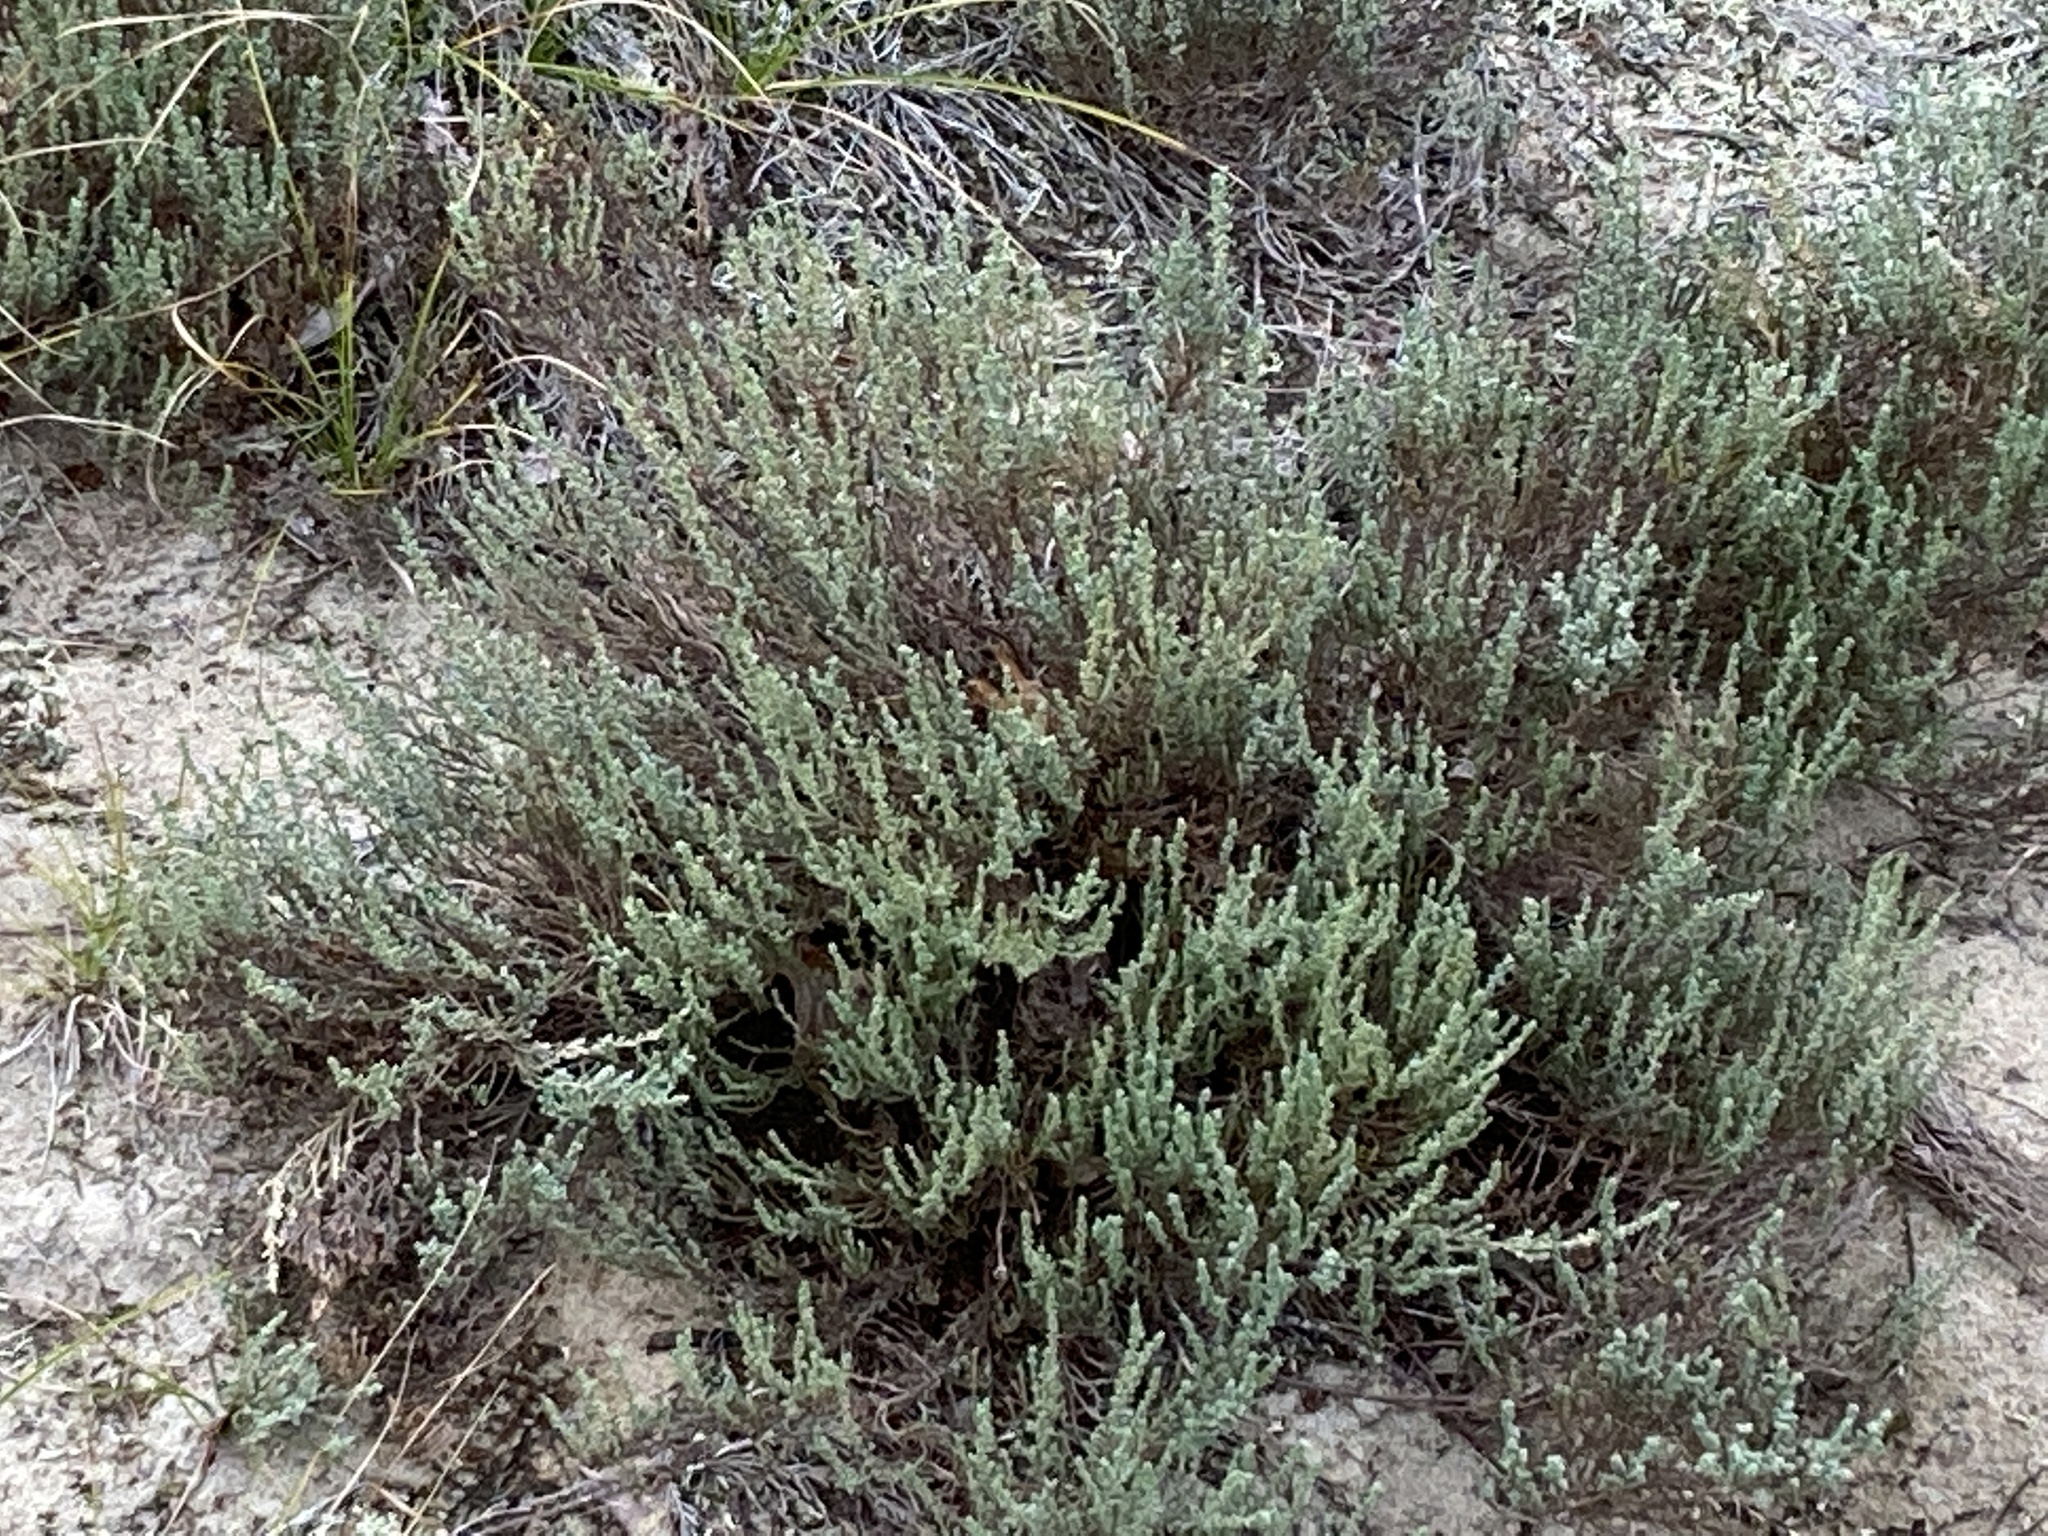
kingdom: Plantae
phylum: Tracheophyta
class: Magnoliopsida
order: Malvales
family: Cistaceae
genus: Hudsonia
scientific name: Hudsonia tomentosa
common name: Beach-heath
